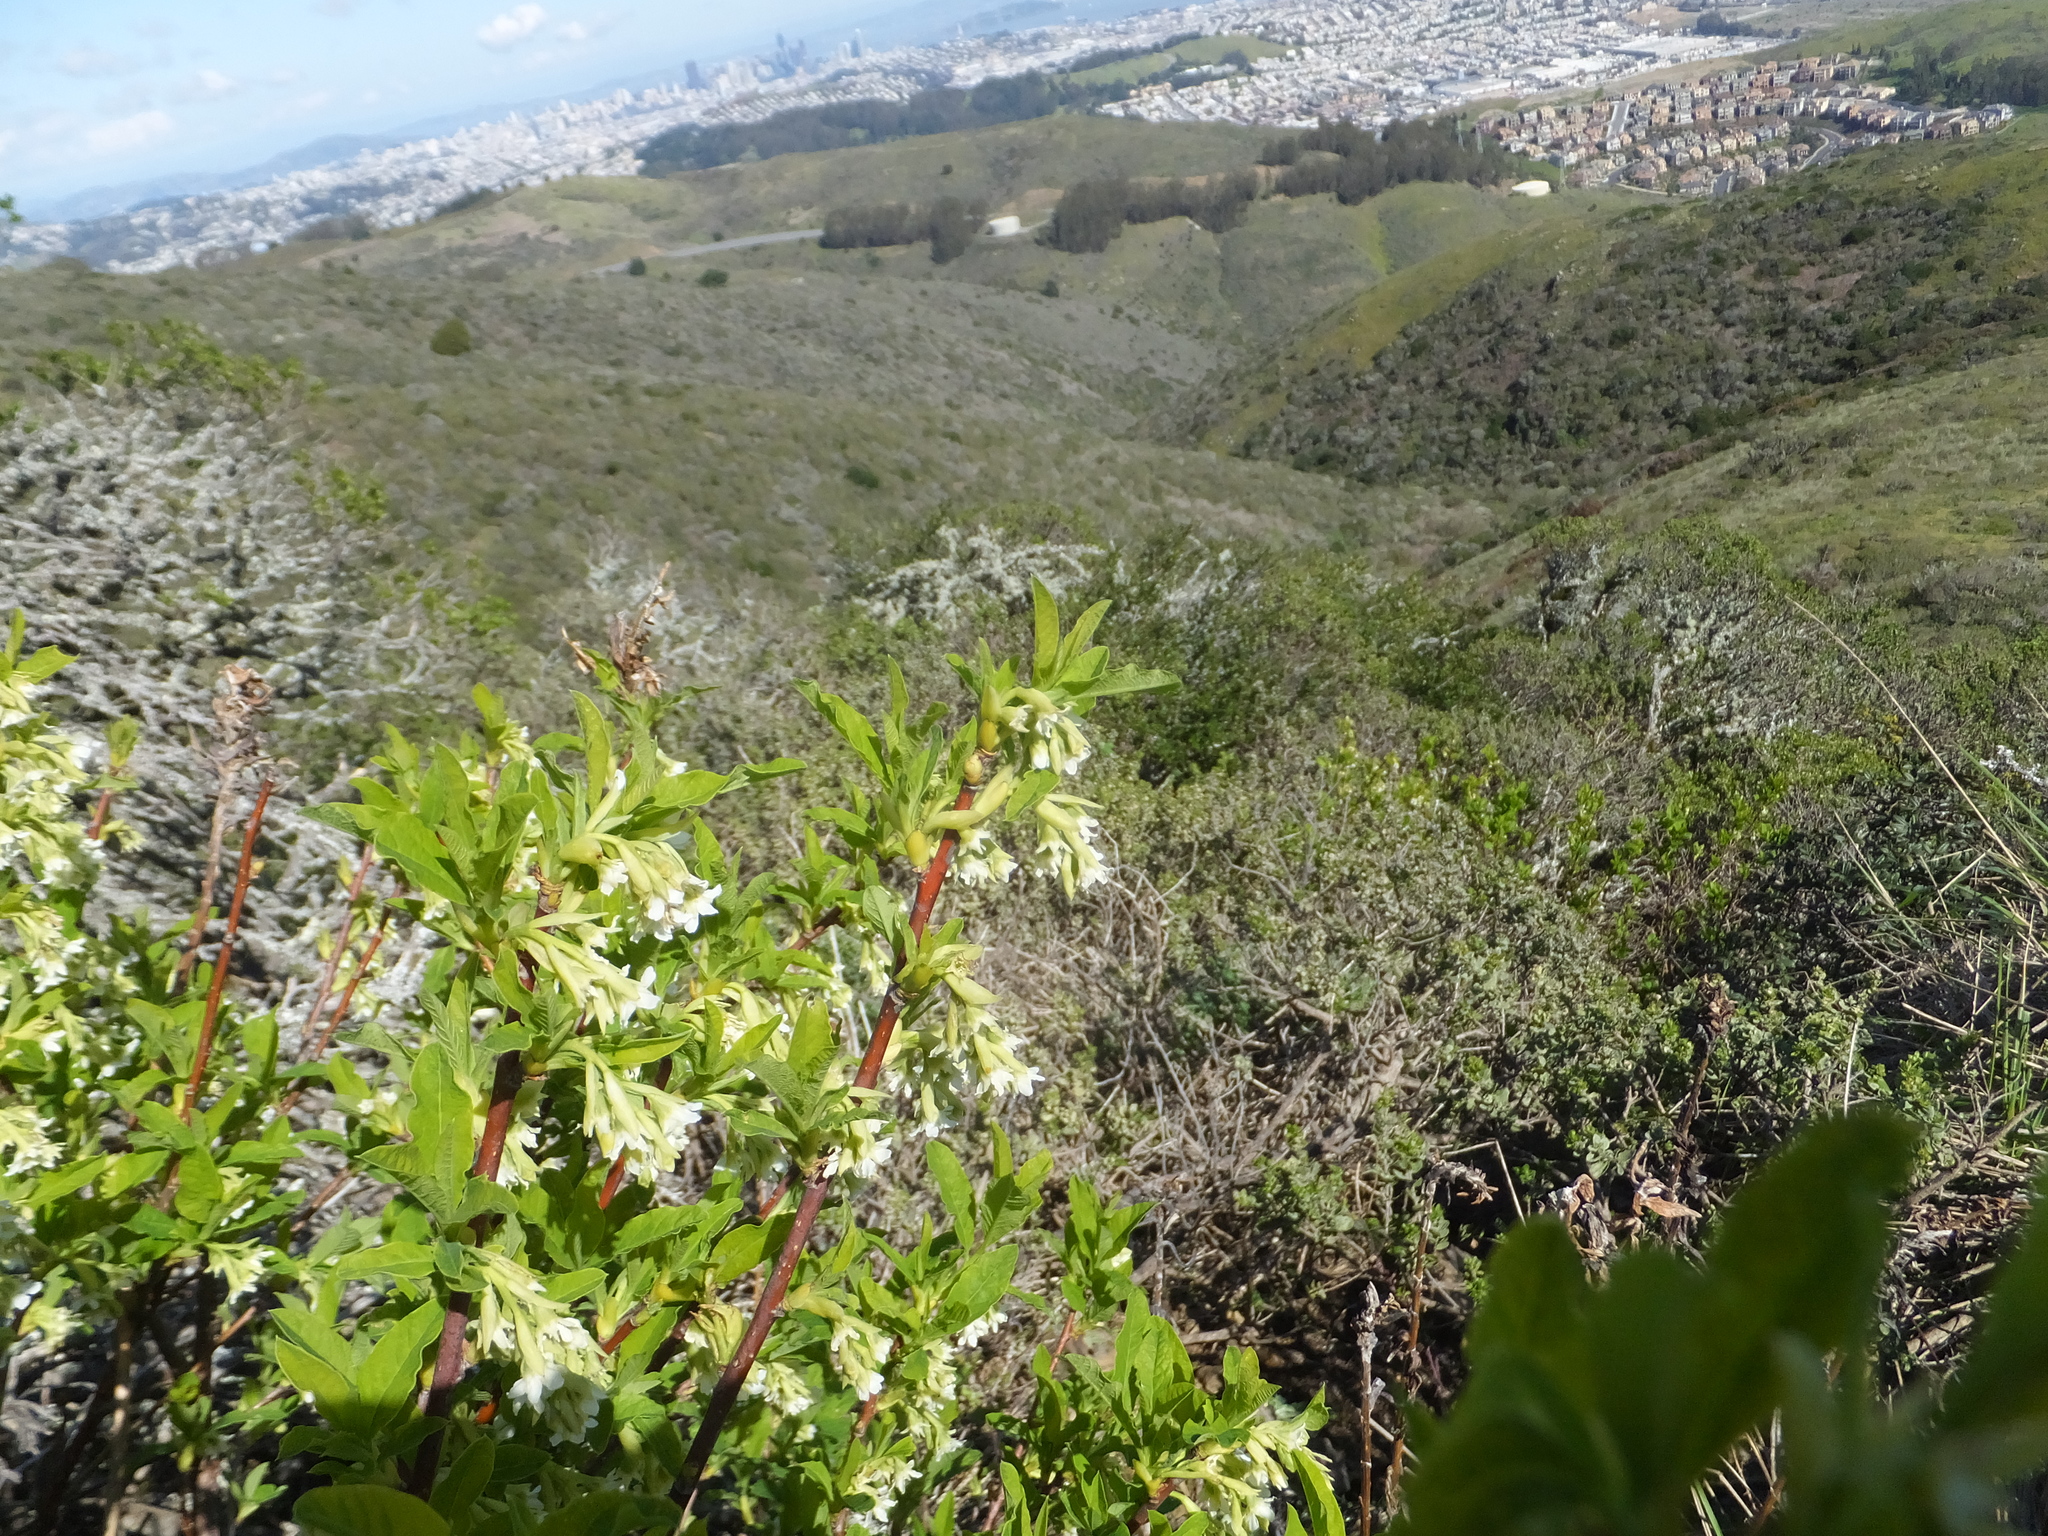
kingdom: Plantae
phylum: Tracheophyta
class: Magnoliopsida
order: Rosales
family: Rosaceae
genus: Oemleria
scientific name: Oemleria cerasiformis
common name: Osoberry
